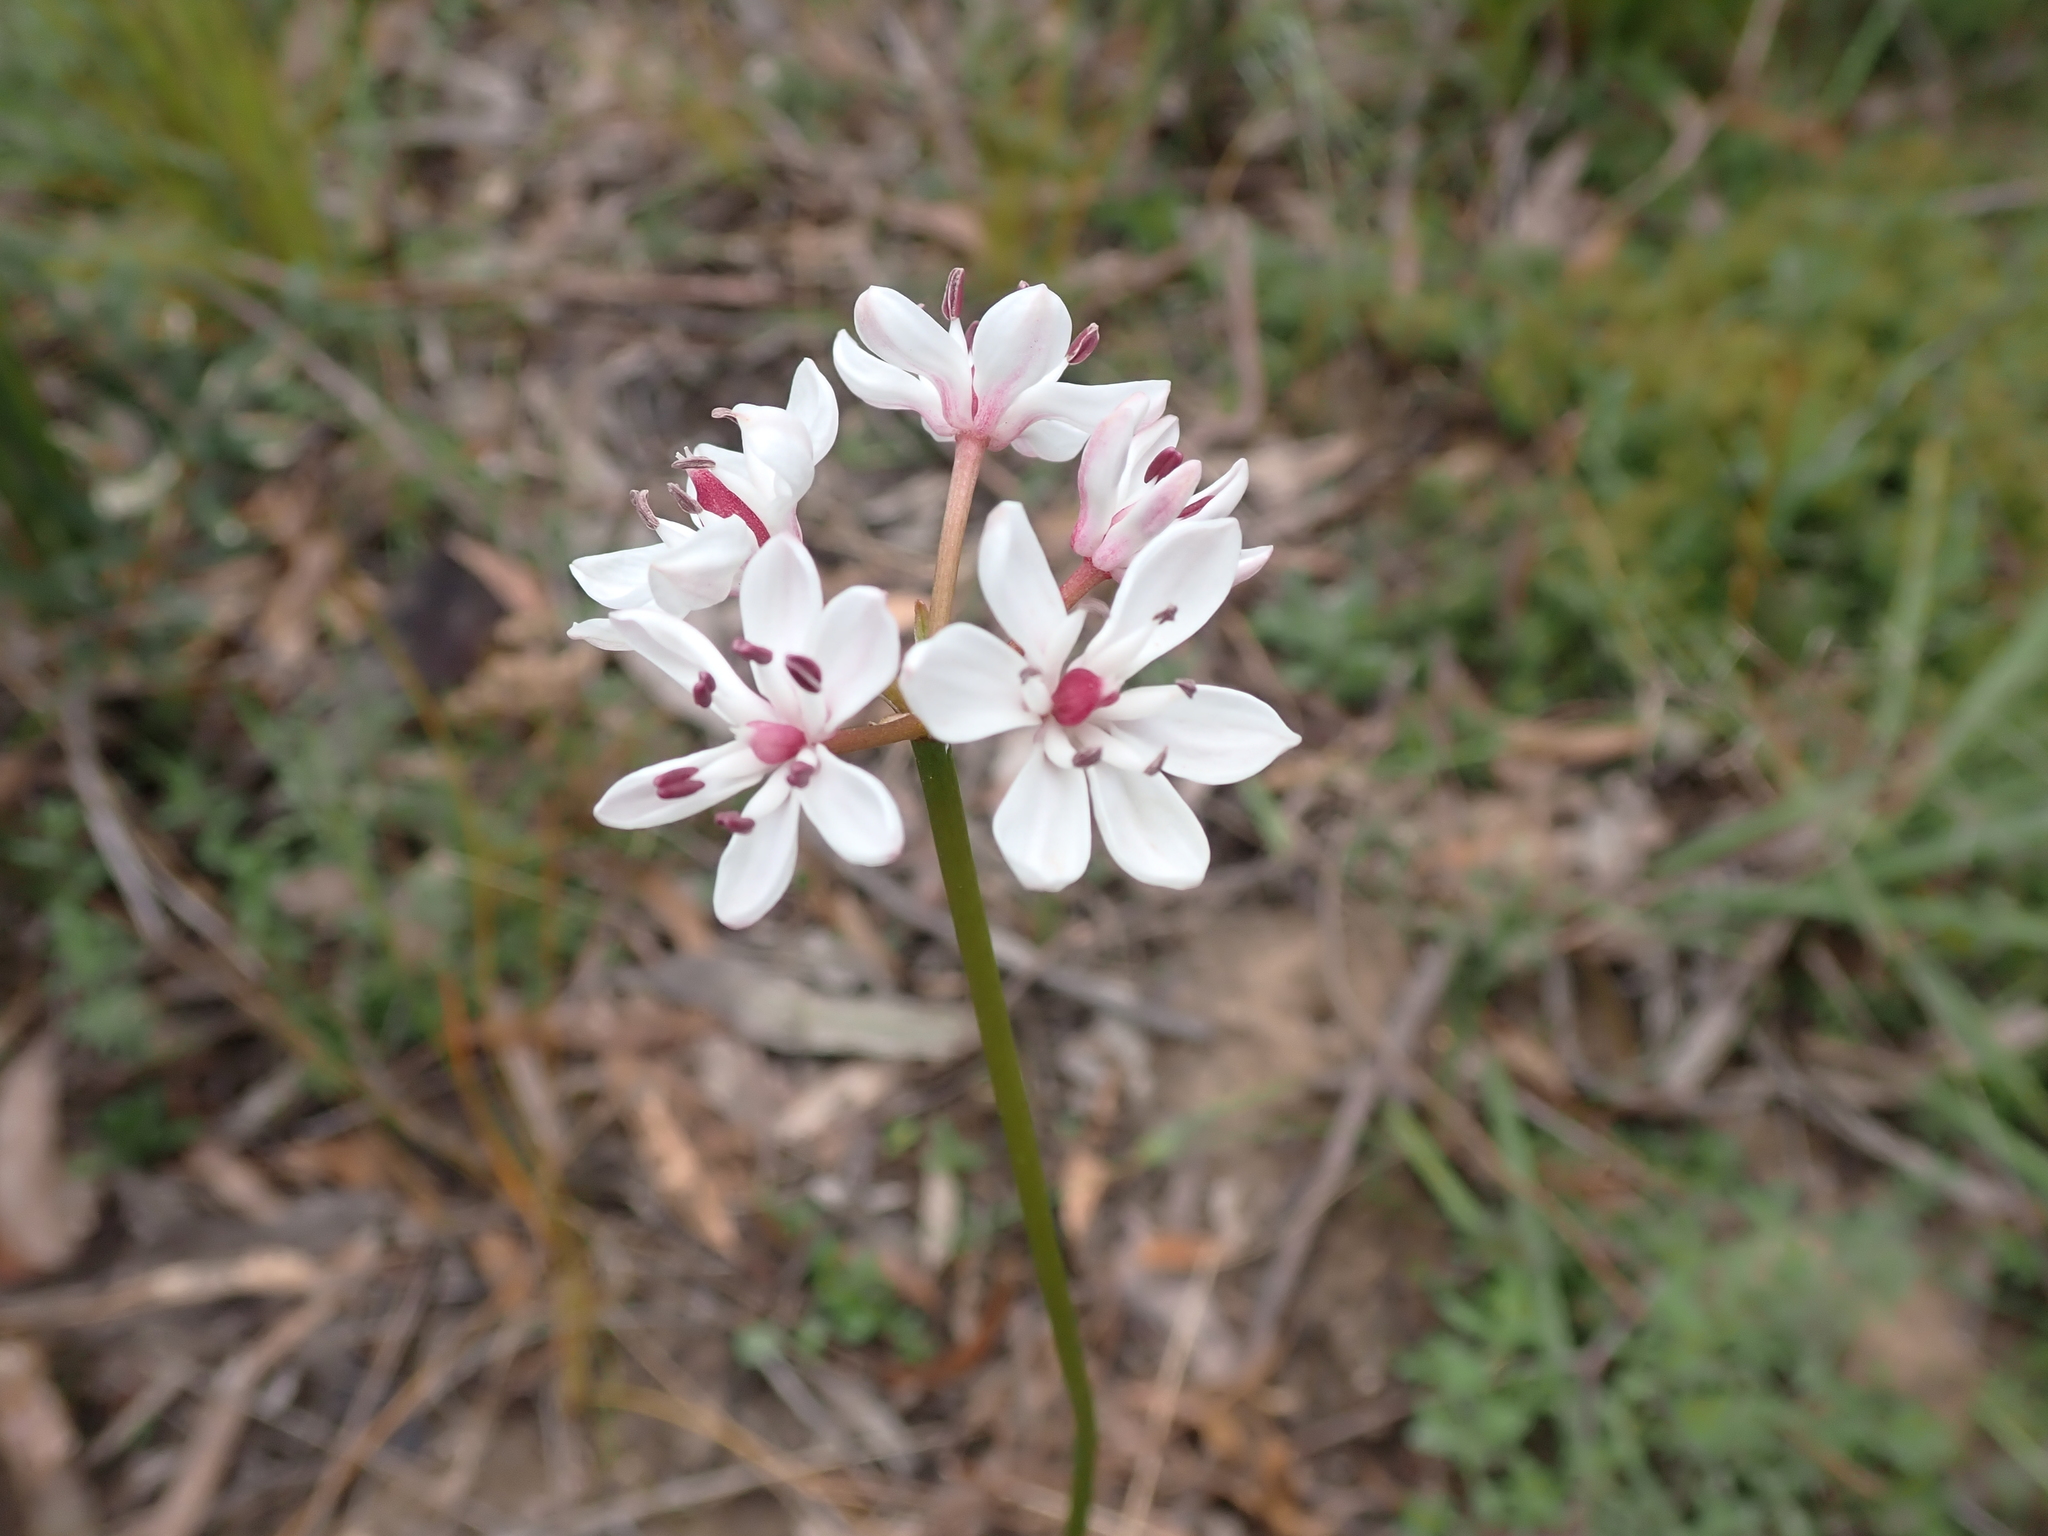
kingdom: Plantae
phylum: Tracheophyta
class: Liliopsida
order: Liliales
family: Colchicaceae
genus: Burchardia
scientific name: Burchardia umbellata
